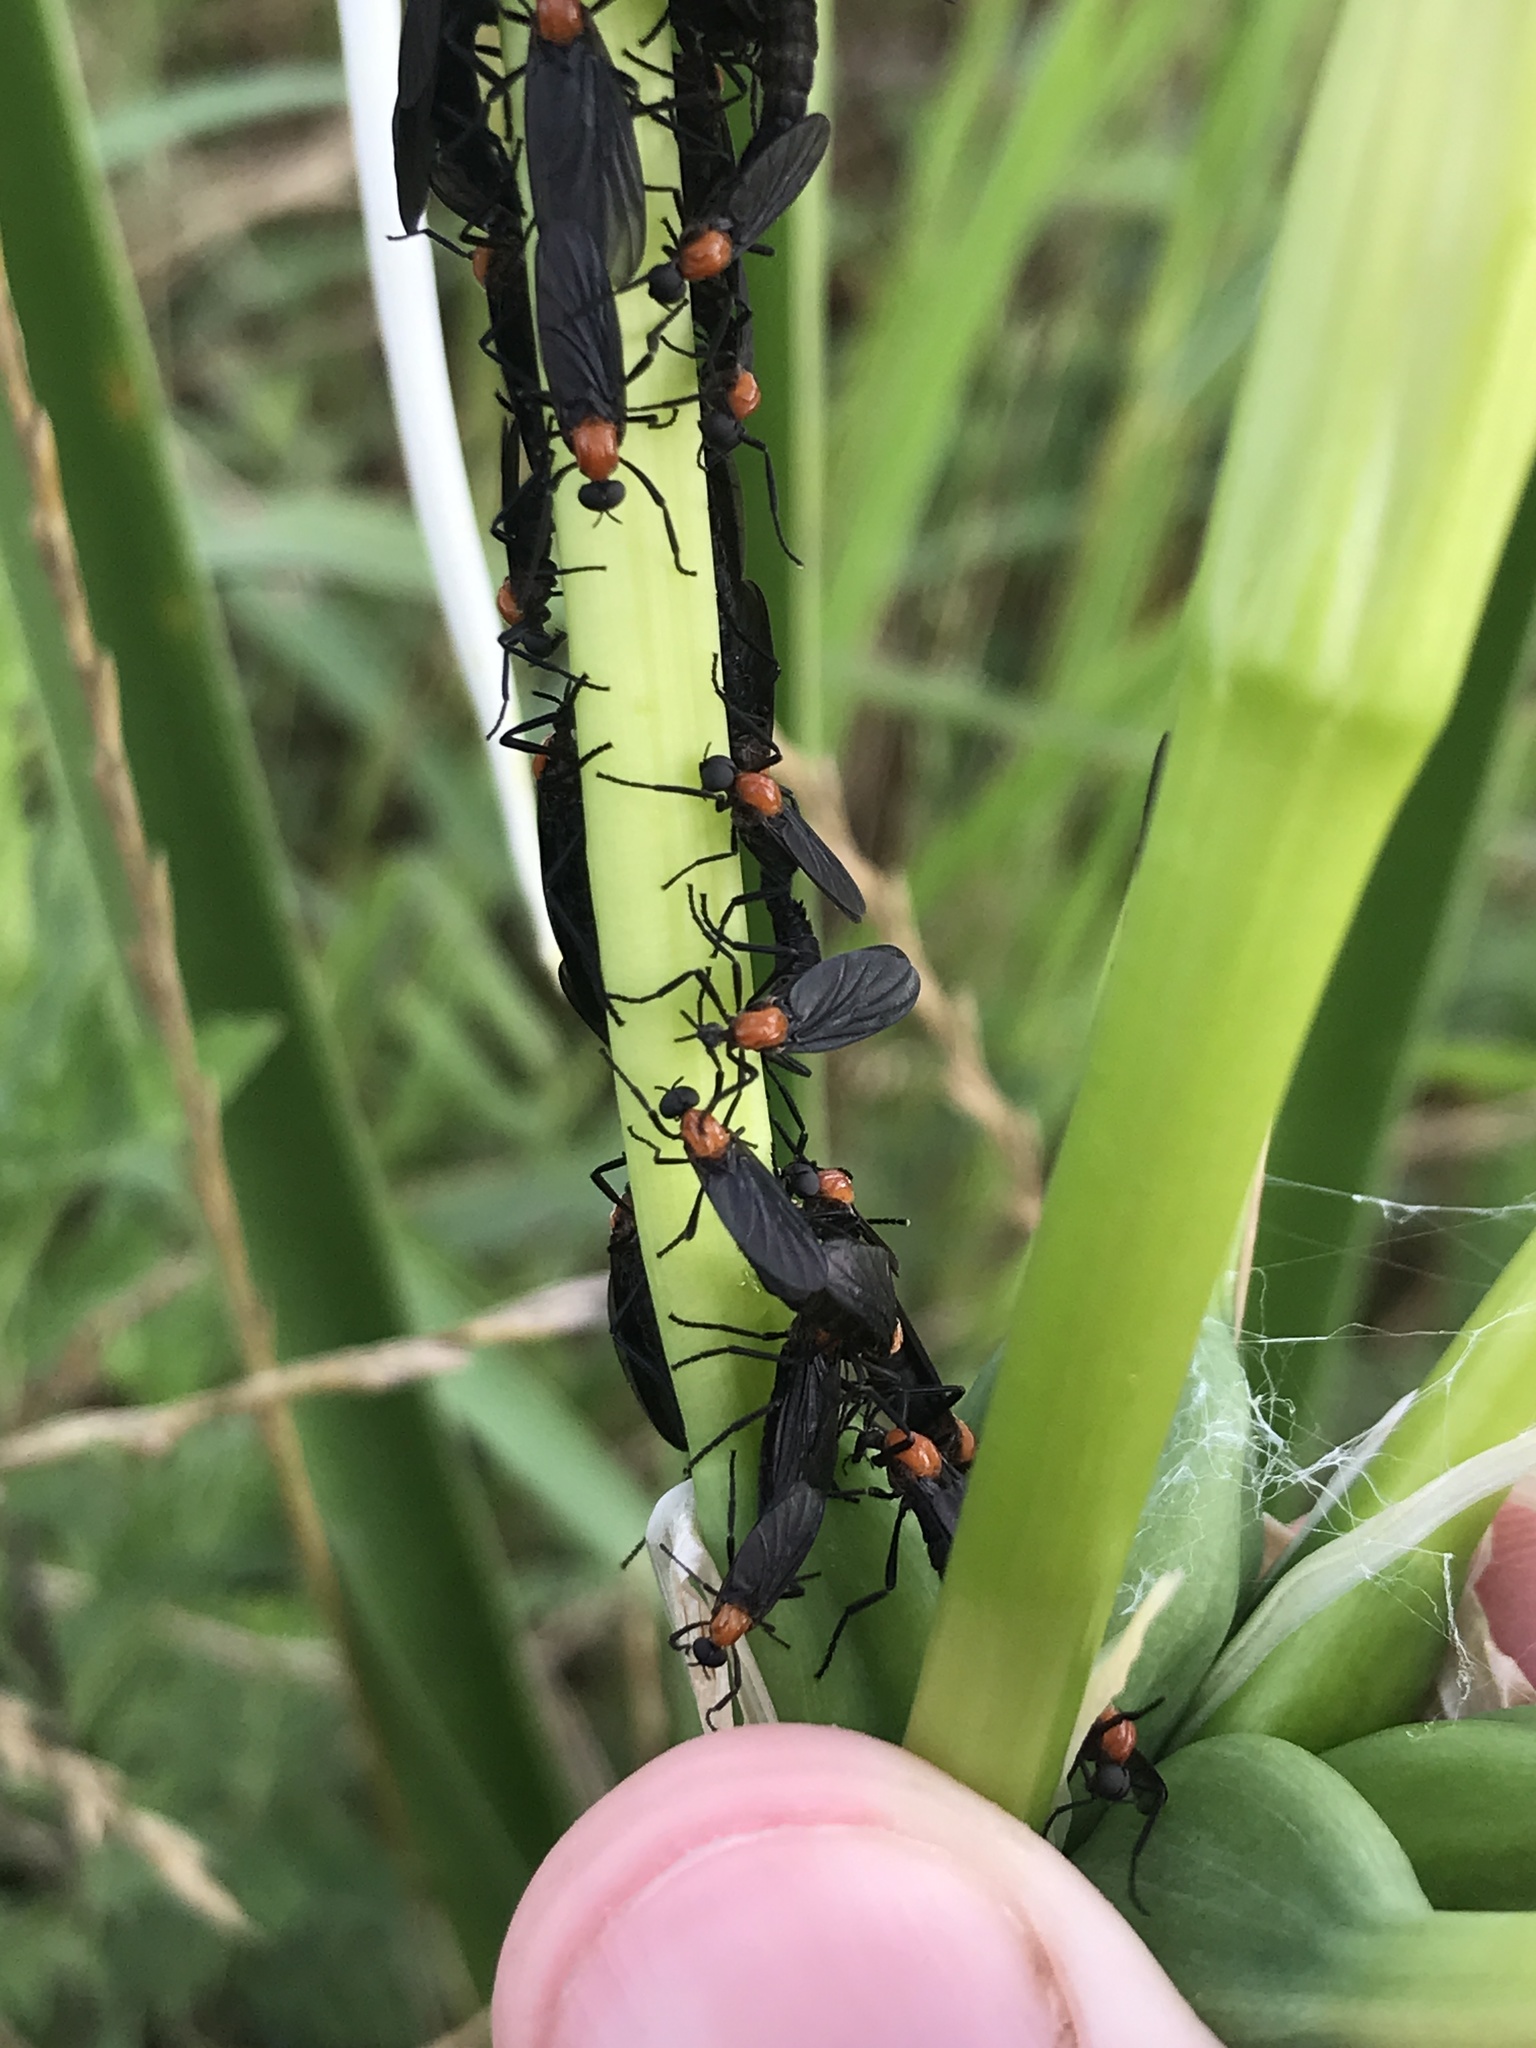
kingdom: Animalia
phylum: Arthropoda
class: Insecta
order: Diptera
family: Bibionidae
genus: Plecia
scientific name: Plecia nearctica
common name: March fly
